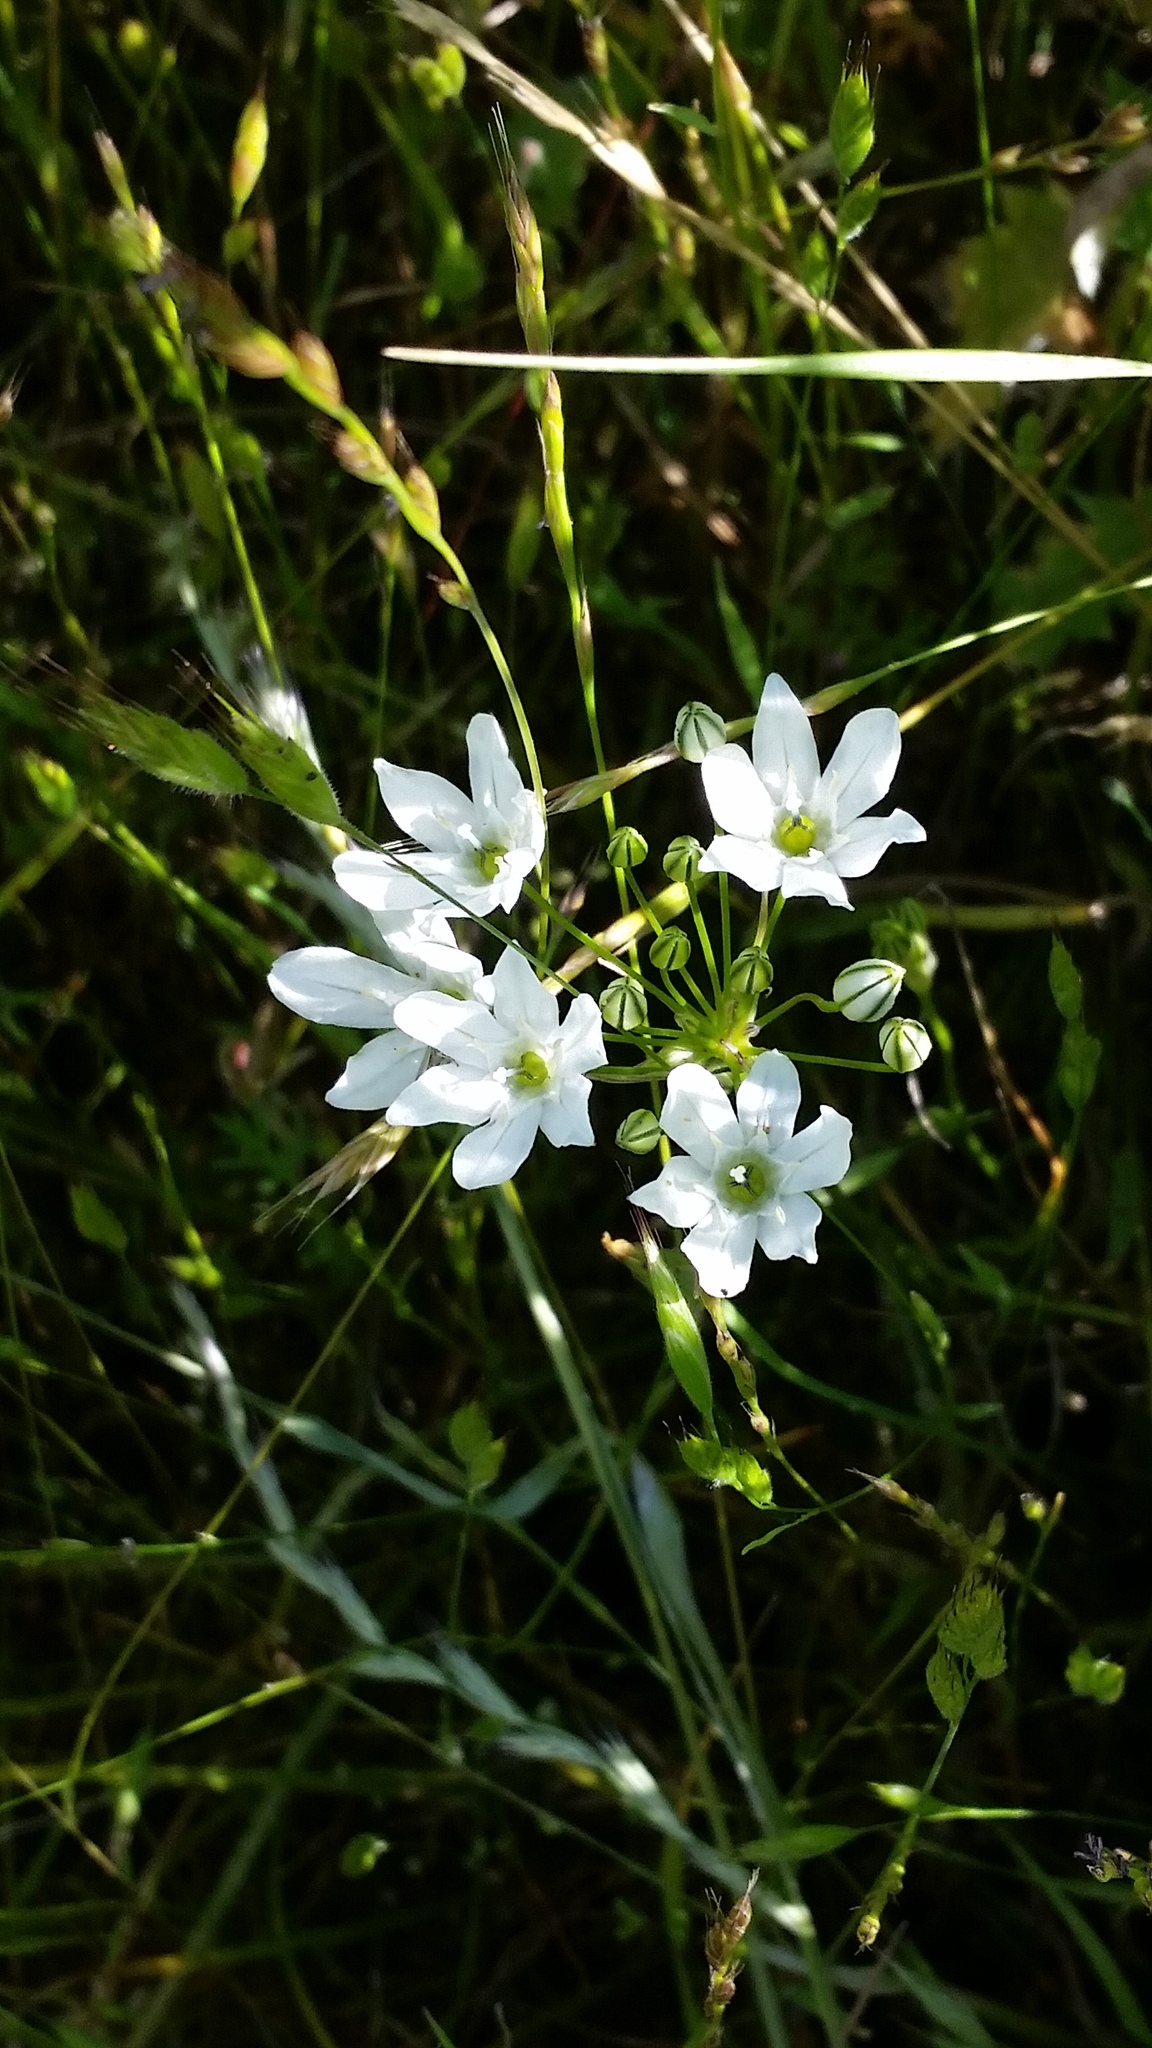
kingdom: Plantae
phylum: Tracheophyta
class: Liliopsida
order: Asparagales
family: Asparagaceae
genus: Triteleia
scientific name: Triteleia hyacinthina
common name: White brodiaea
